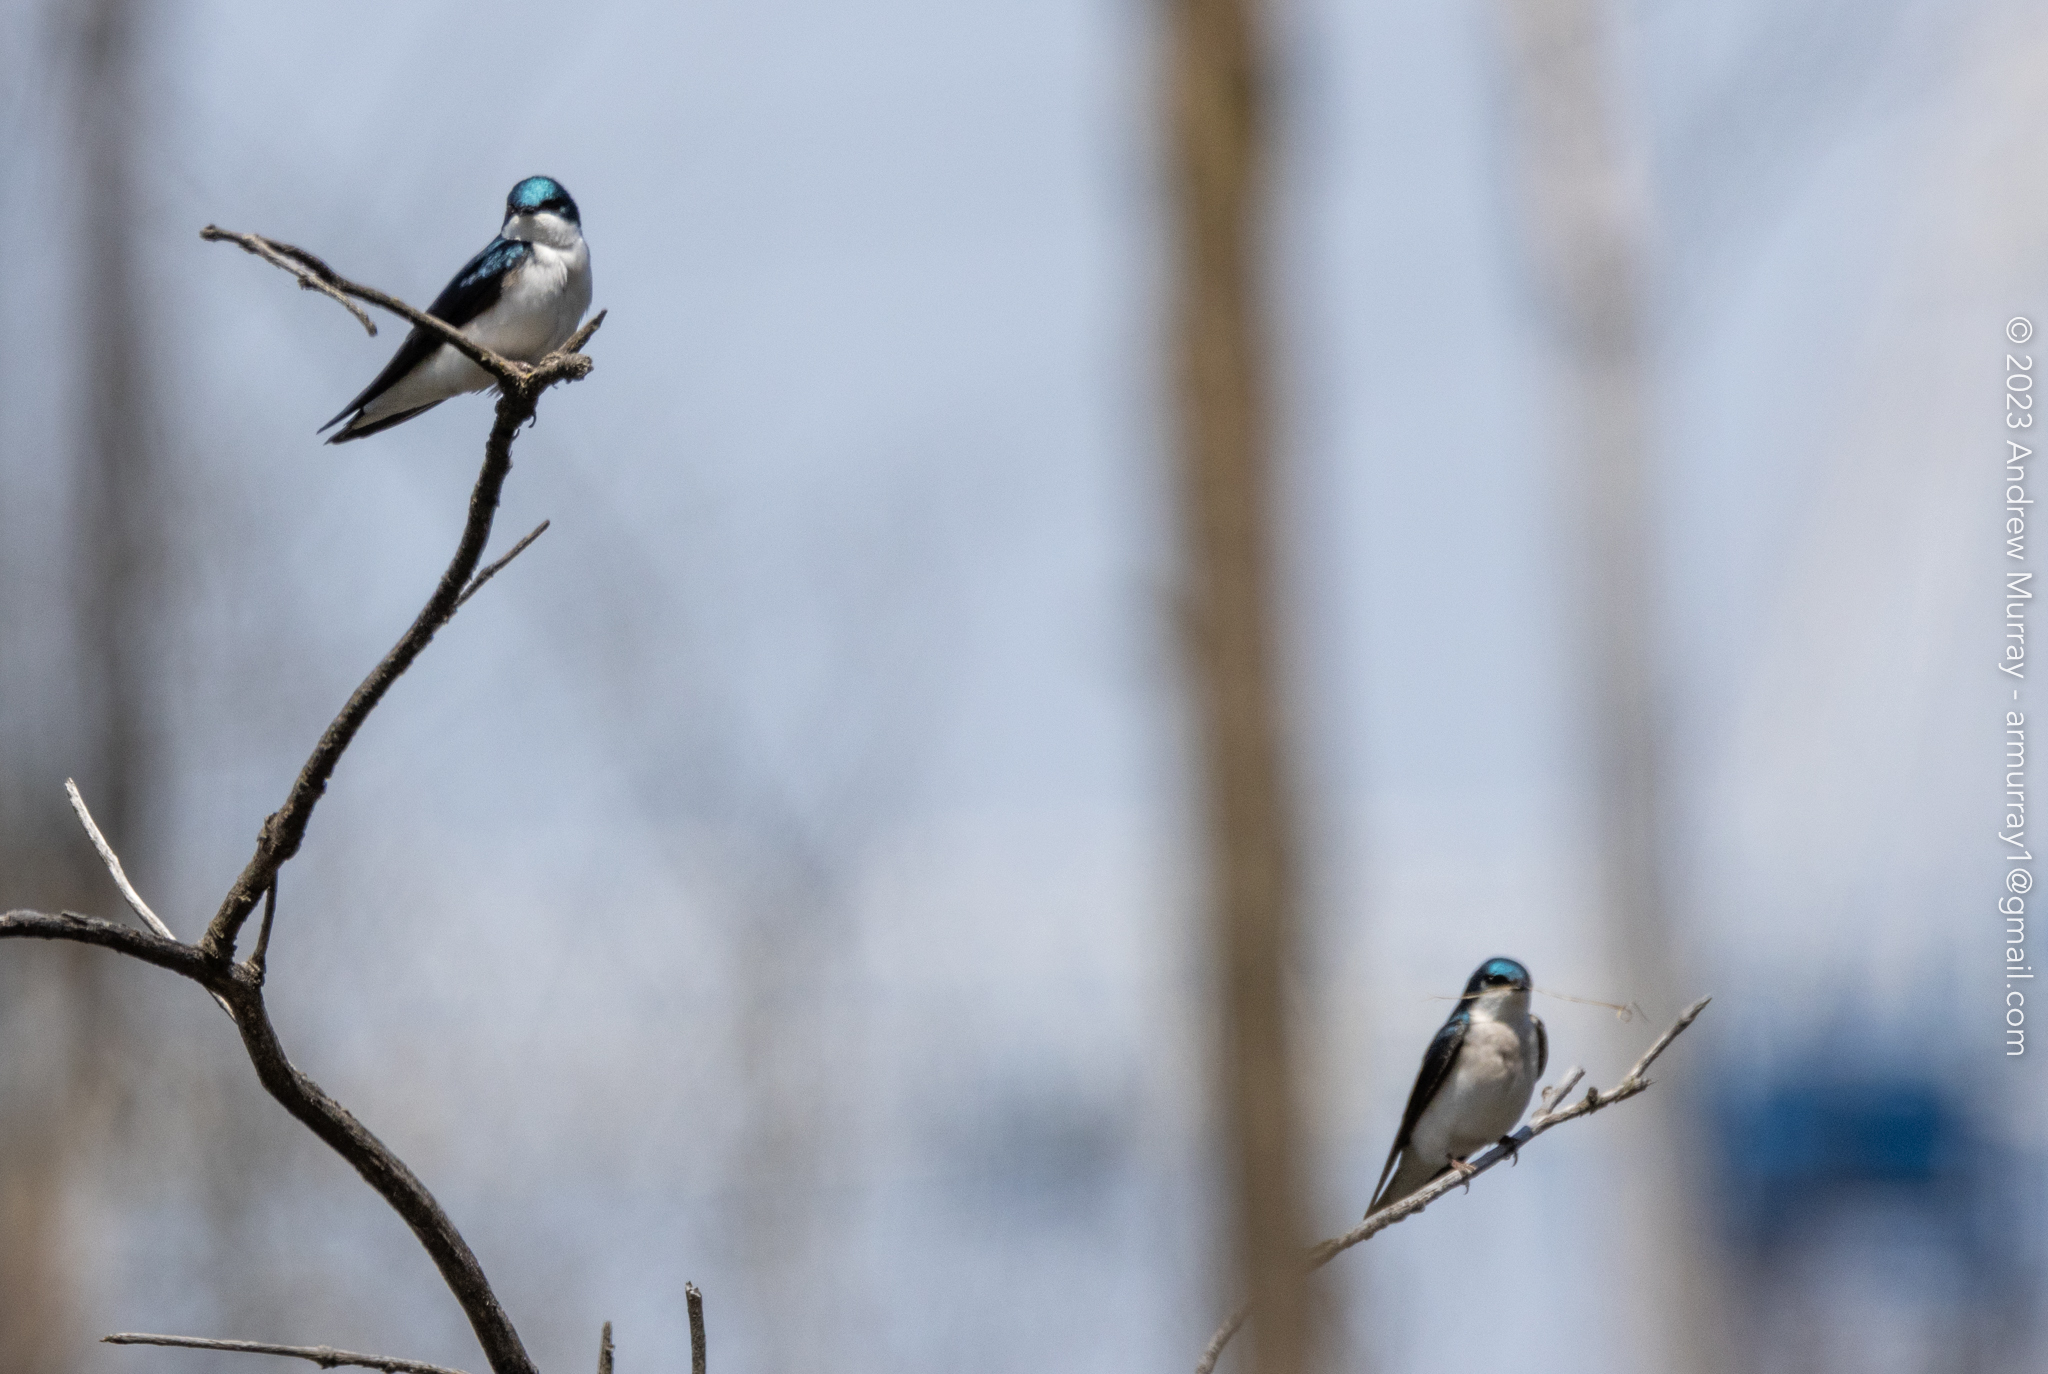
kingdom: Animalia
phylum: Chordata
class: Aves
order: Passeriformes
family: Hirundinidae
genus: Tachycineta
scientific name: Tachycineta bicolor
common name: Tree swallow
